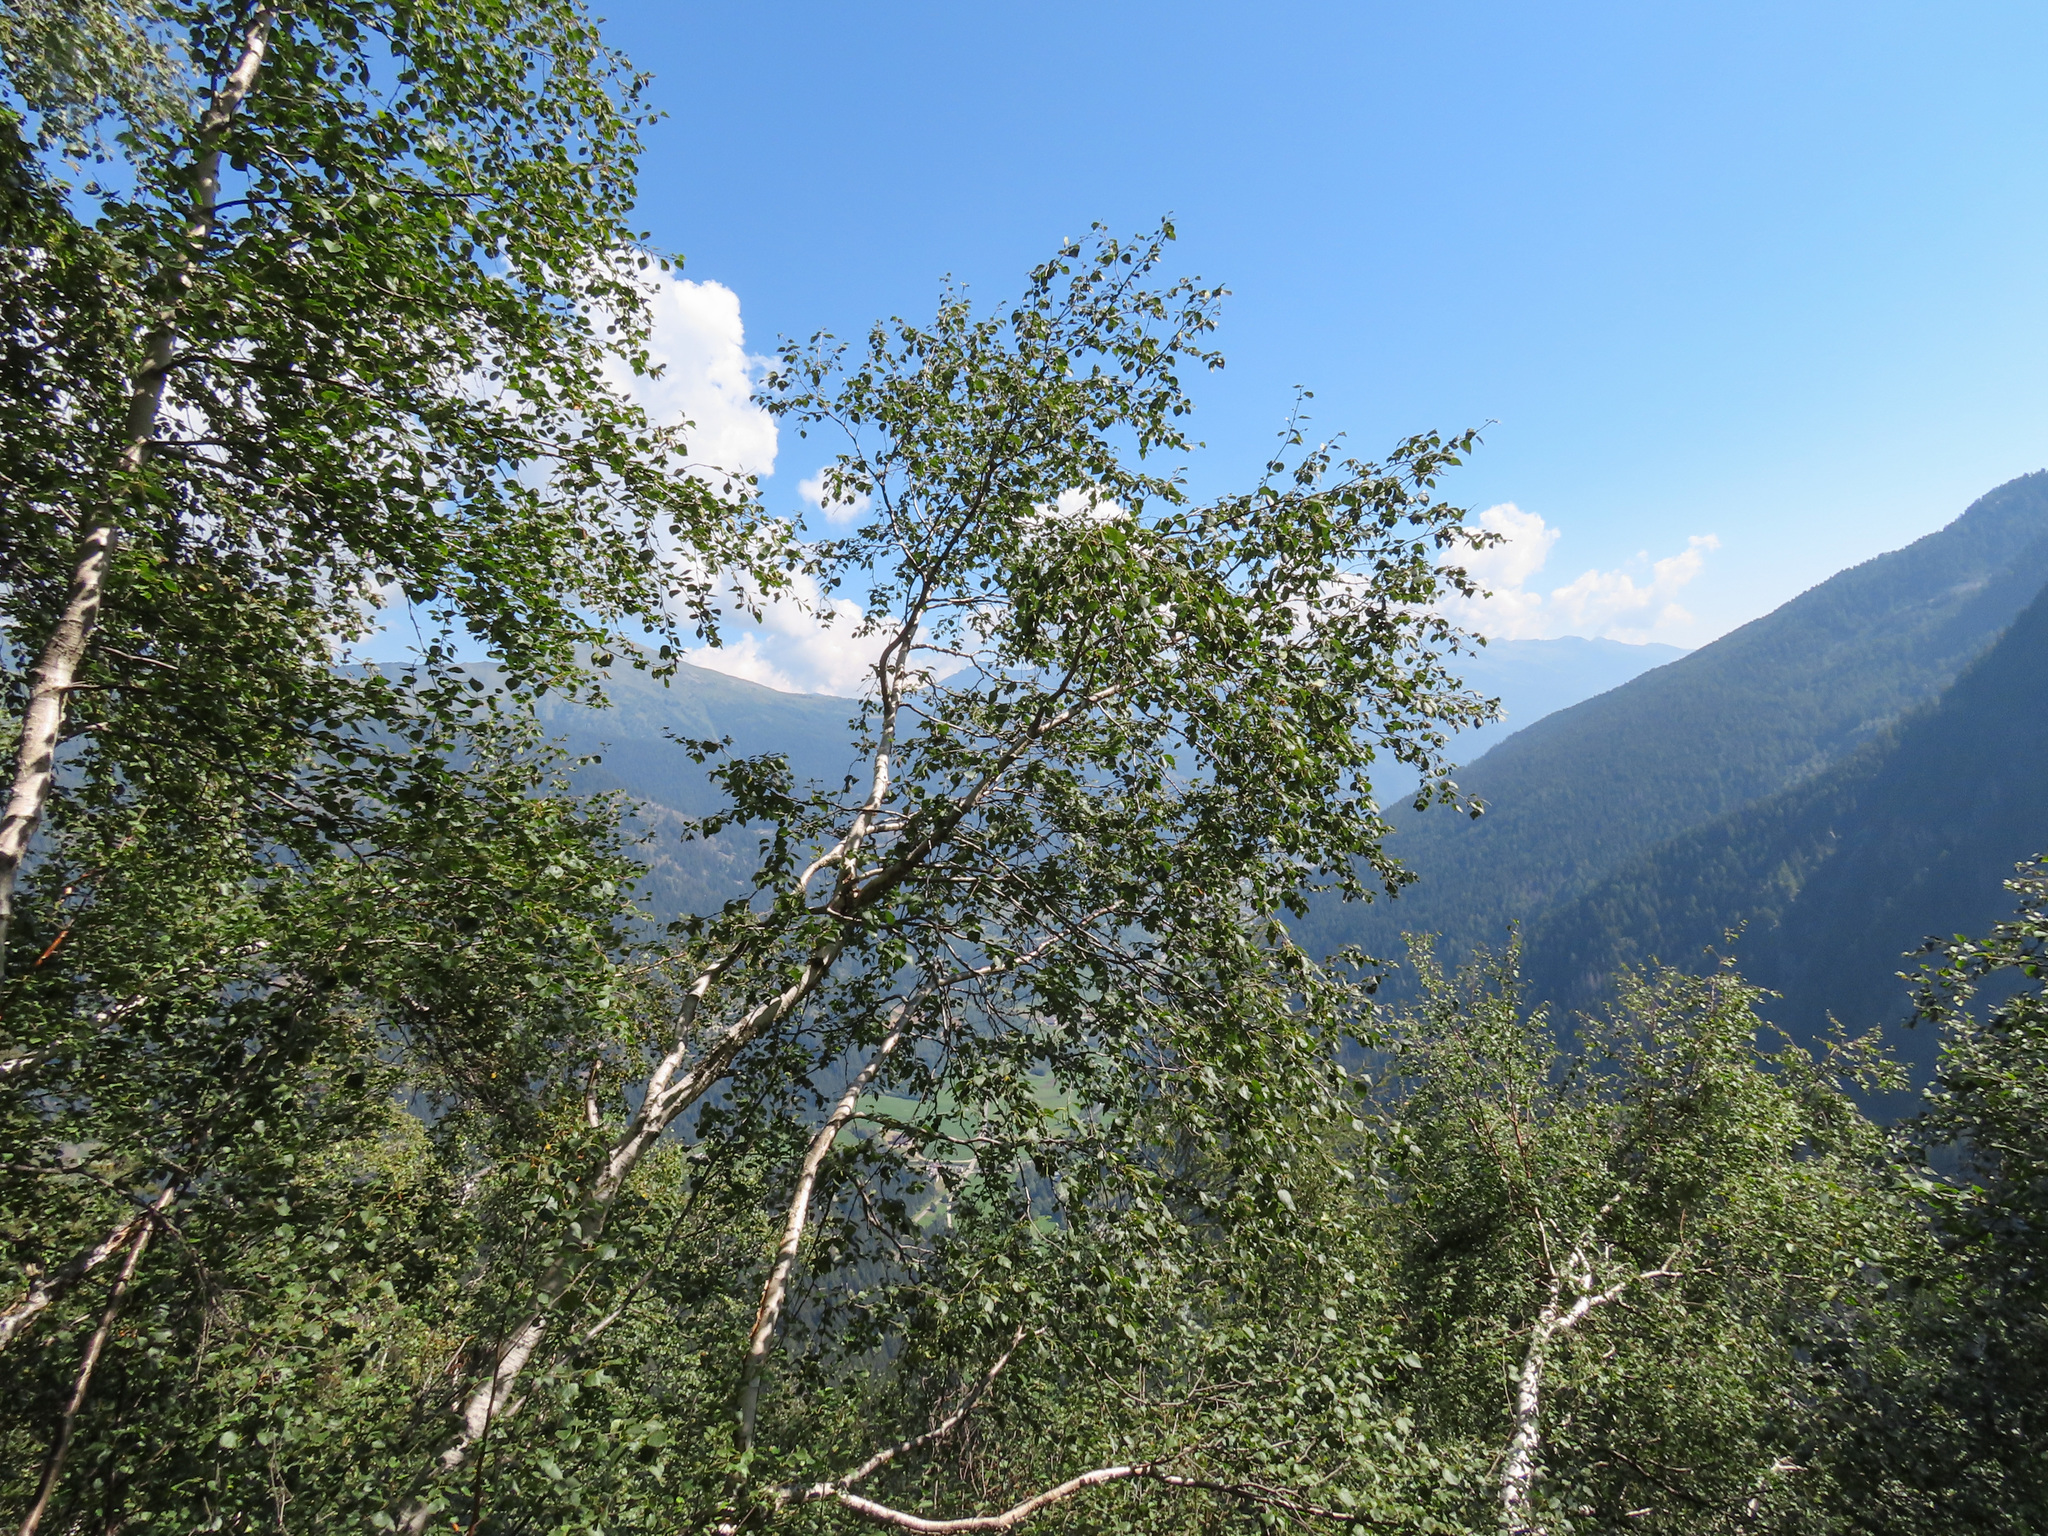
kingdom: Plantae
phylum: Tracheophyta
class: Magnoliopsida
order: Fagales
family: Betulaceae
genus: Betula
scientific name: Betula pendula
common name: Silver birch
